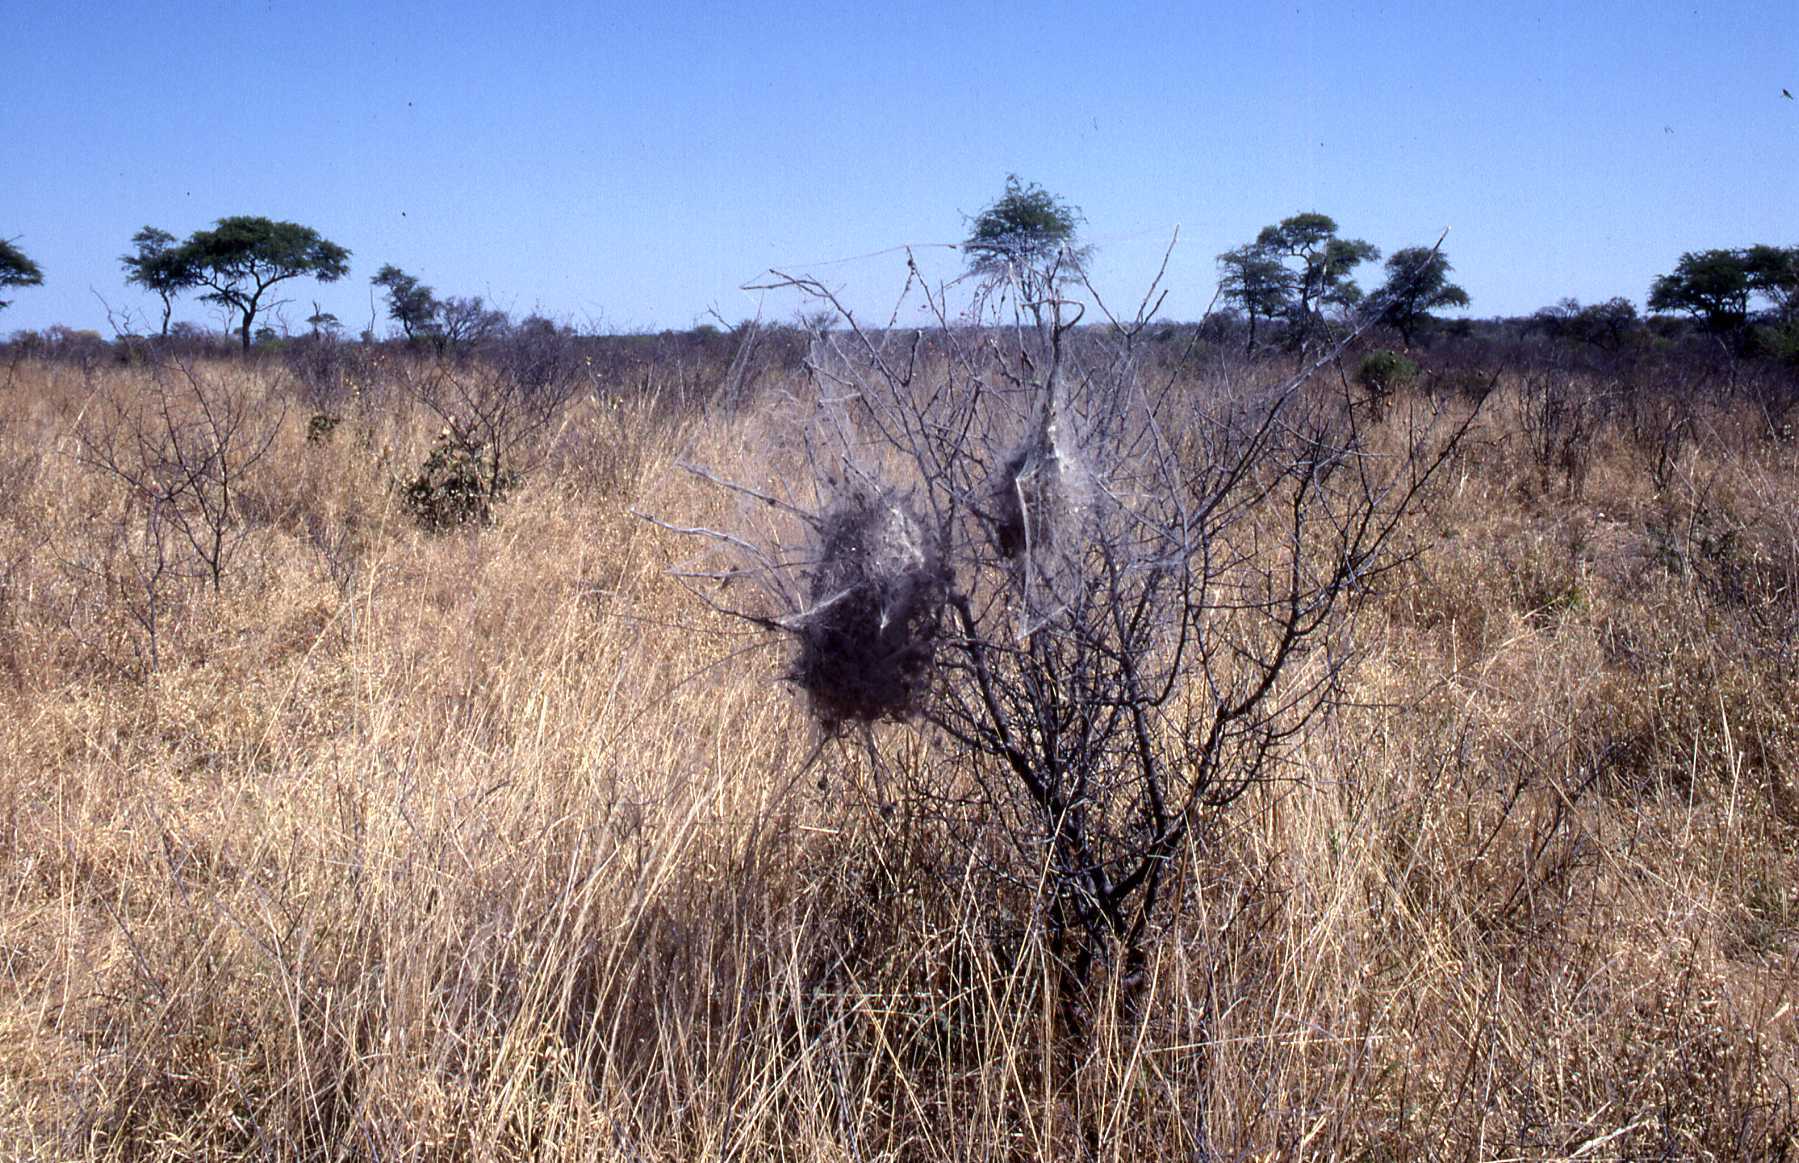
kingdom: Animalia
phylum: Arthropoda
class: Arachnida
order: Araneae
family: Eresidae
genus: Stegodyphus
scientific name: Stegodyphus dumicola
